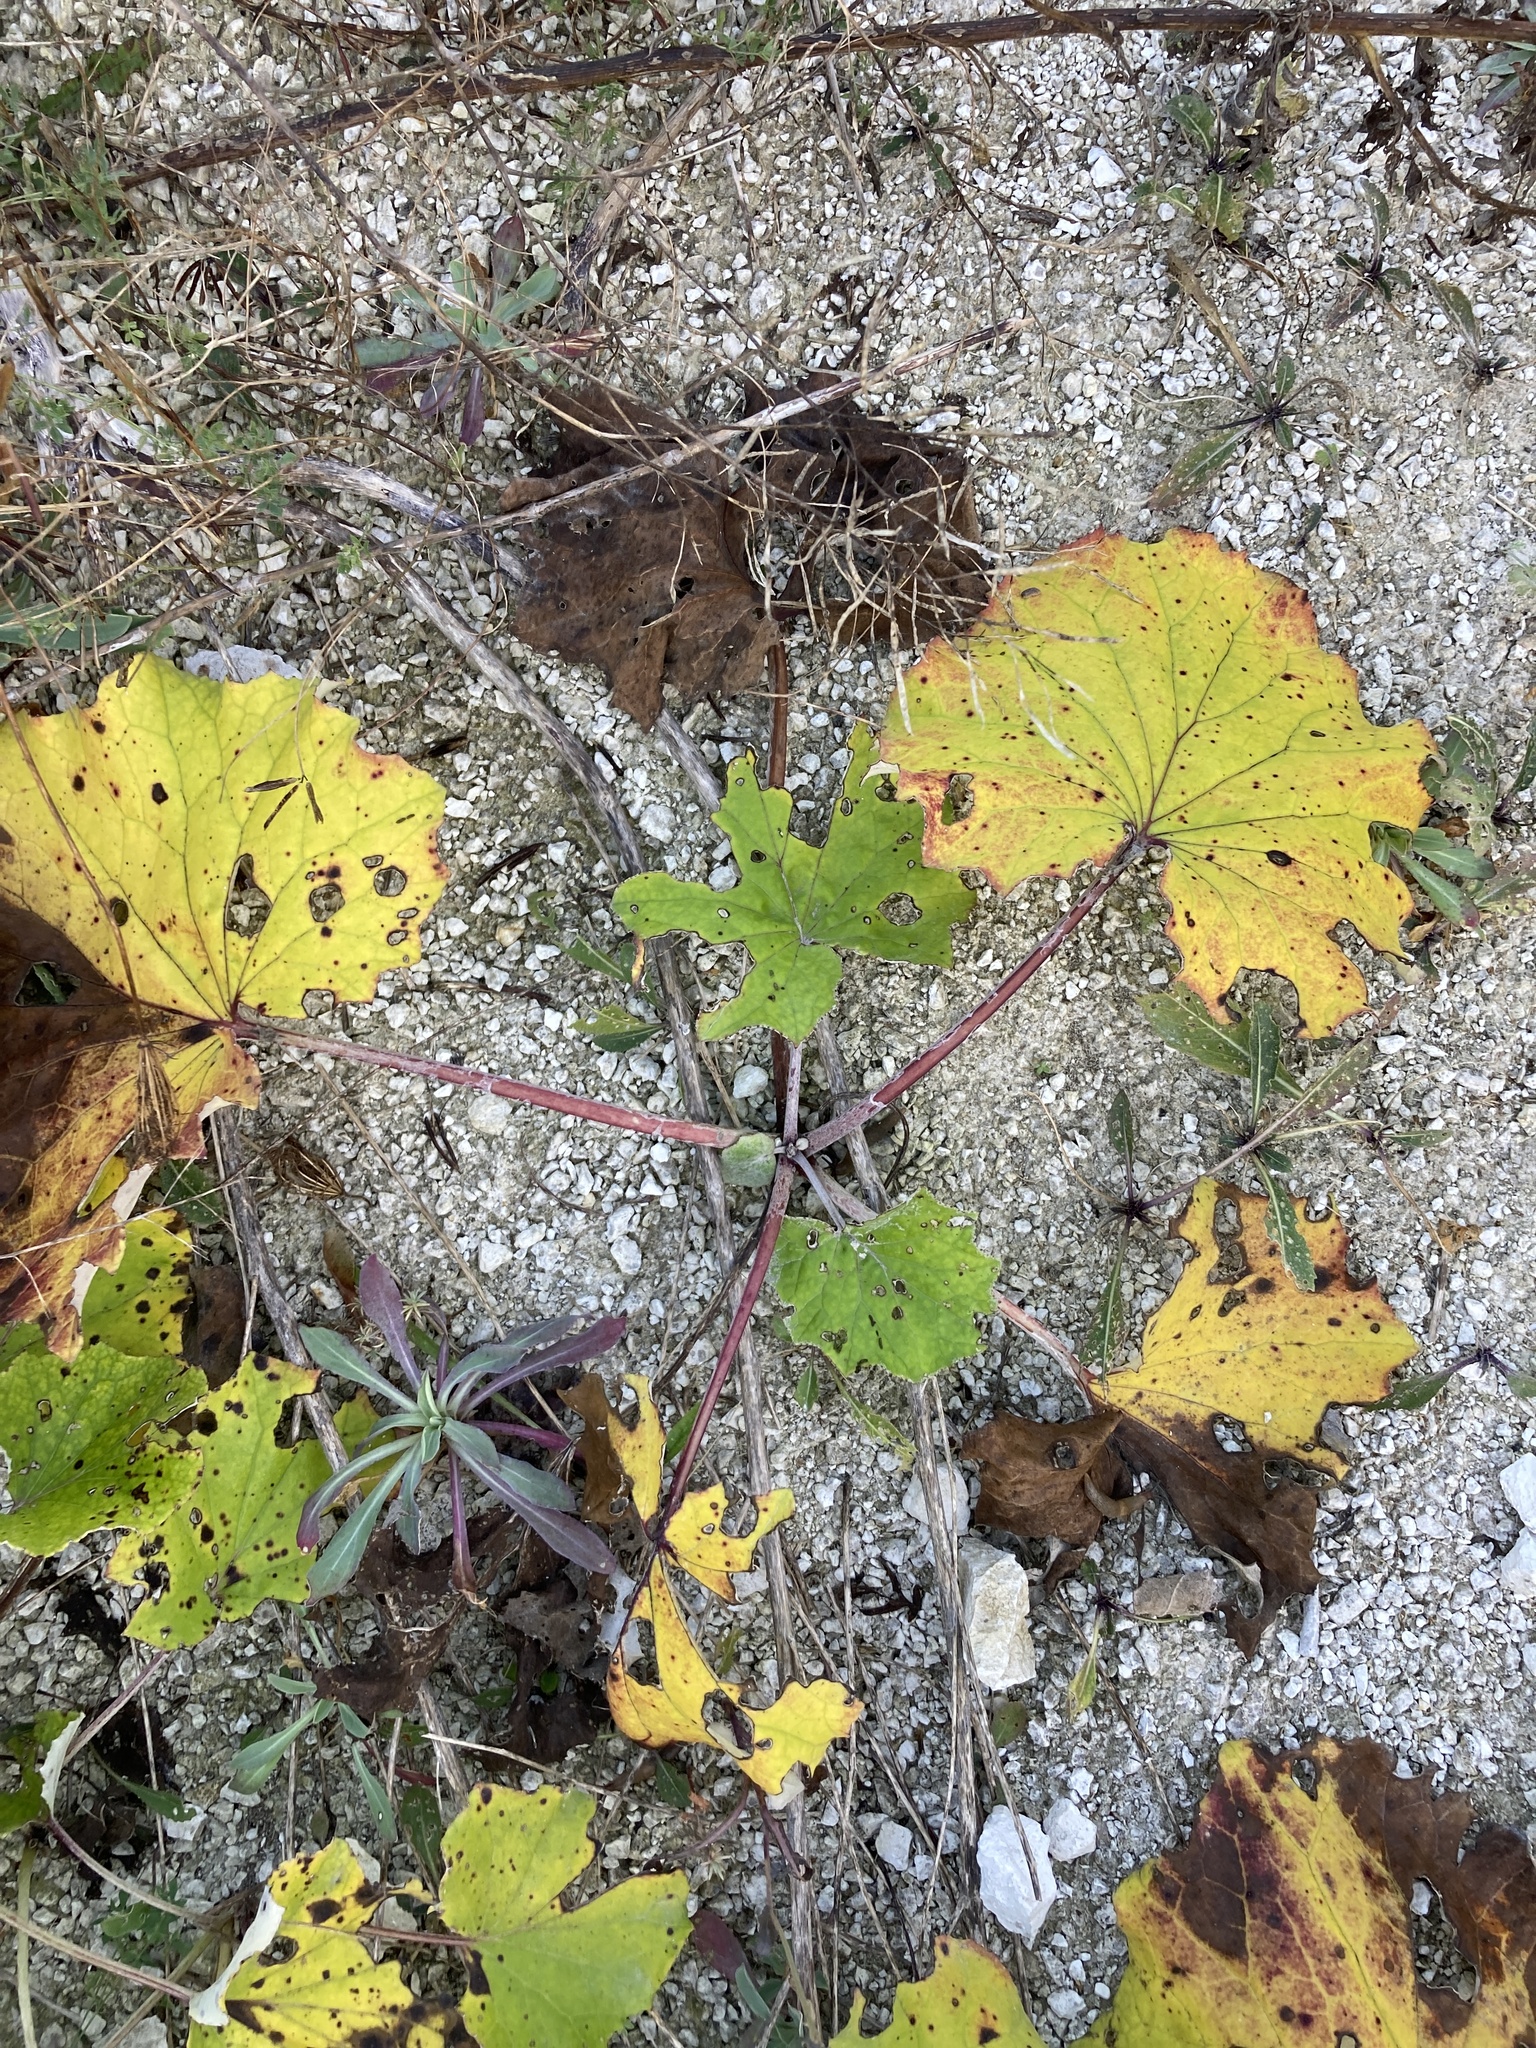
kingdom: Plantae
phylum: Tracheophyta
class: Magnoliopsida
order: Asterales
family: Asteraceae
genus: Tussilago
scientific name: Tussilago farfara
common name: Coltsfoot
